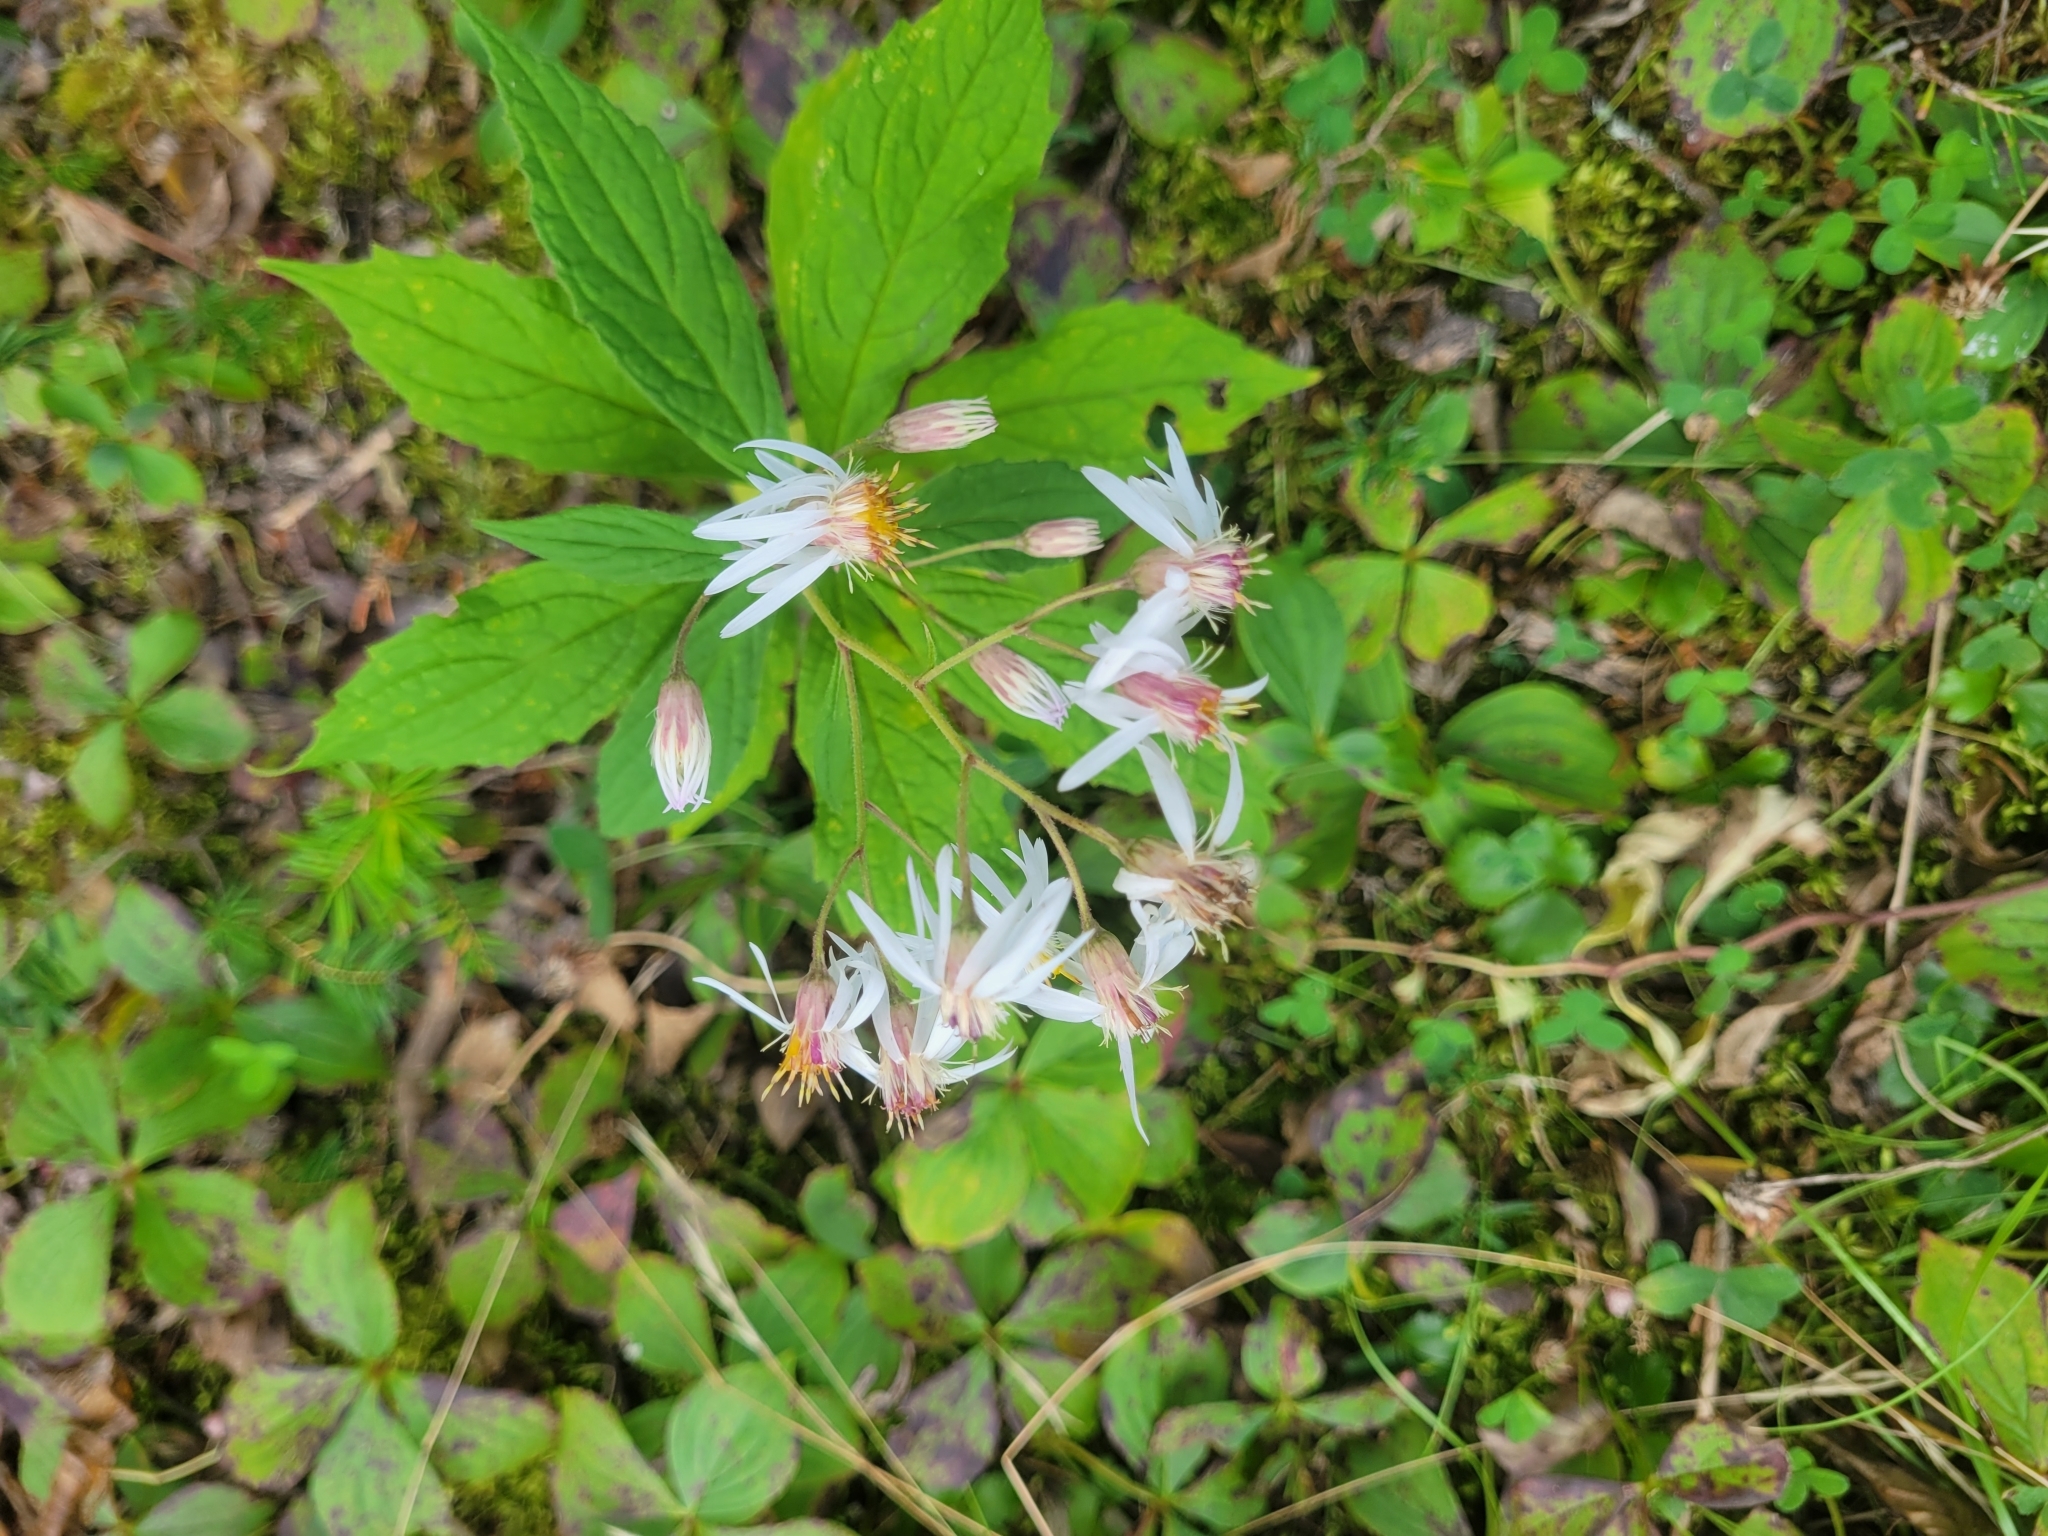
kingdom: Plantae
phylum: Tracheophyta
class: Magnoliopsida
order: Asterales
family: Asteraceae
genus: Oclemena
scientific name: Oclemena acuminata
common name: Mountain aster
